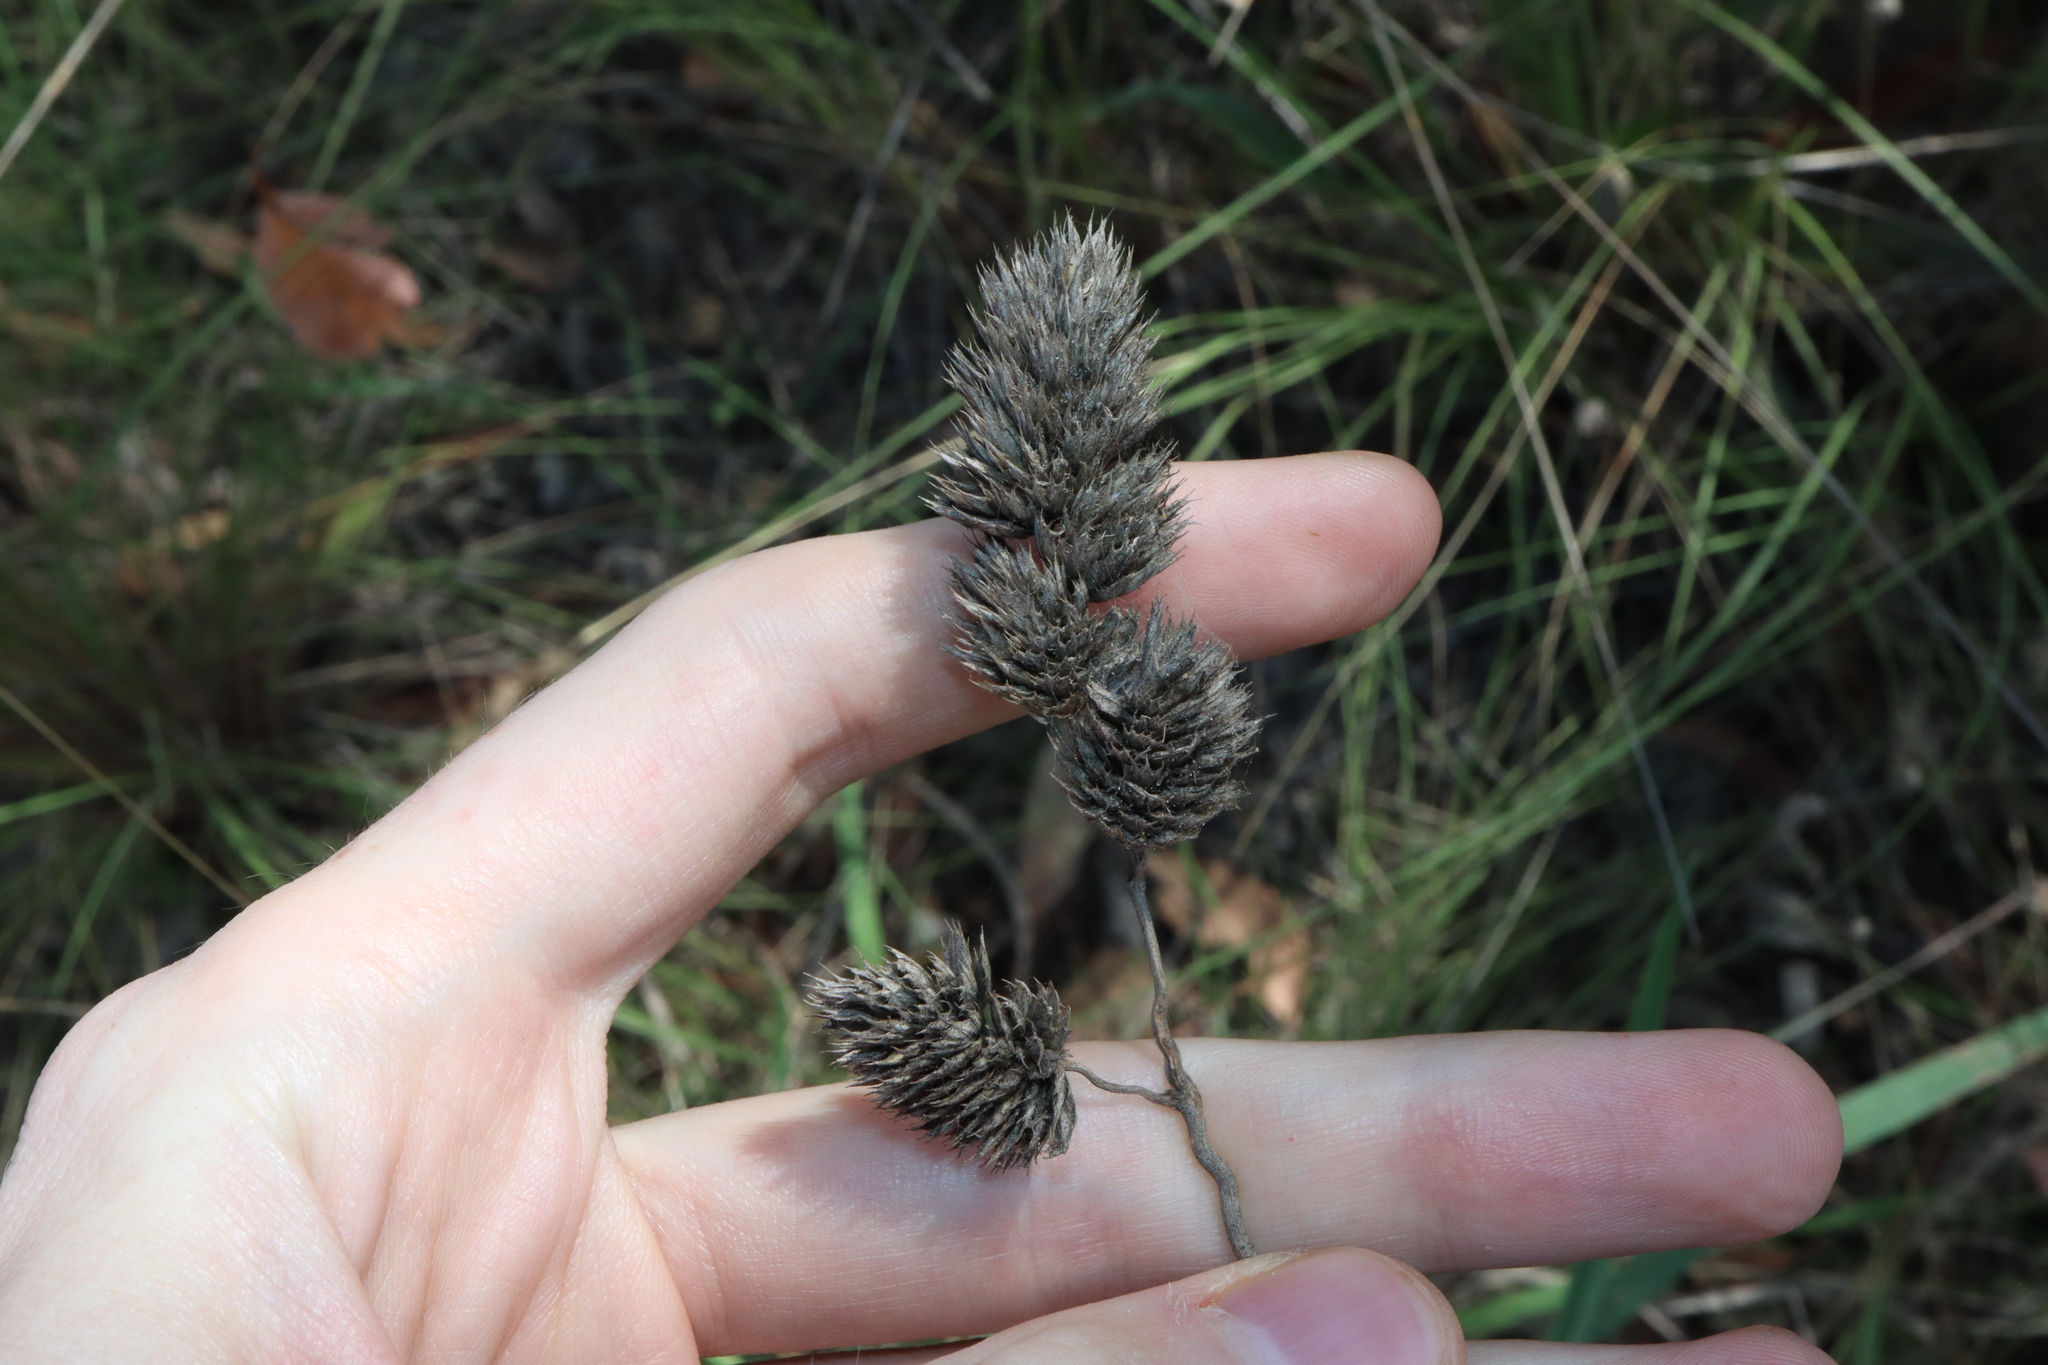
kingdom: Plantae
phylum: Tracheophyta
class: Liliopsida
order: Poales
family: Poaceae
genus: Dactylis
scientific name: Dactylis glomerata
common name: Orchardgrass
